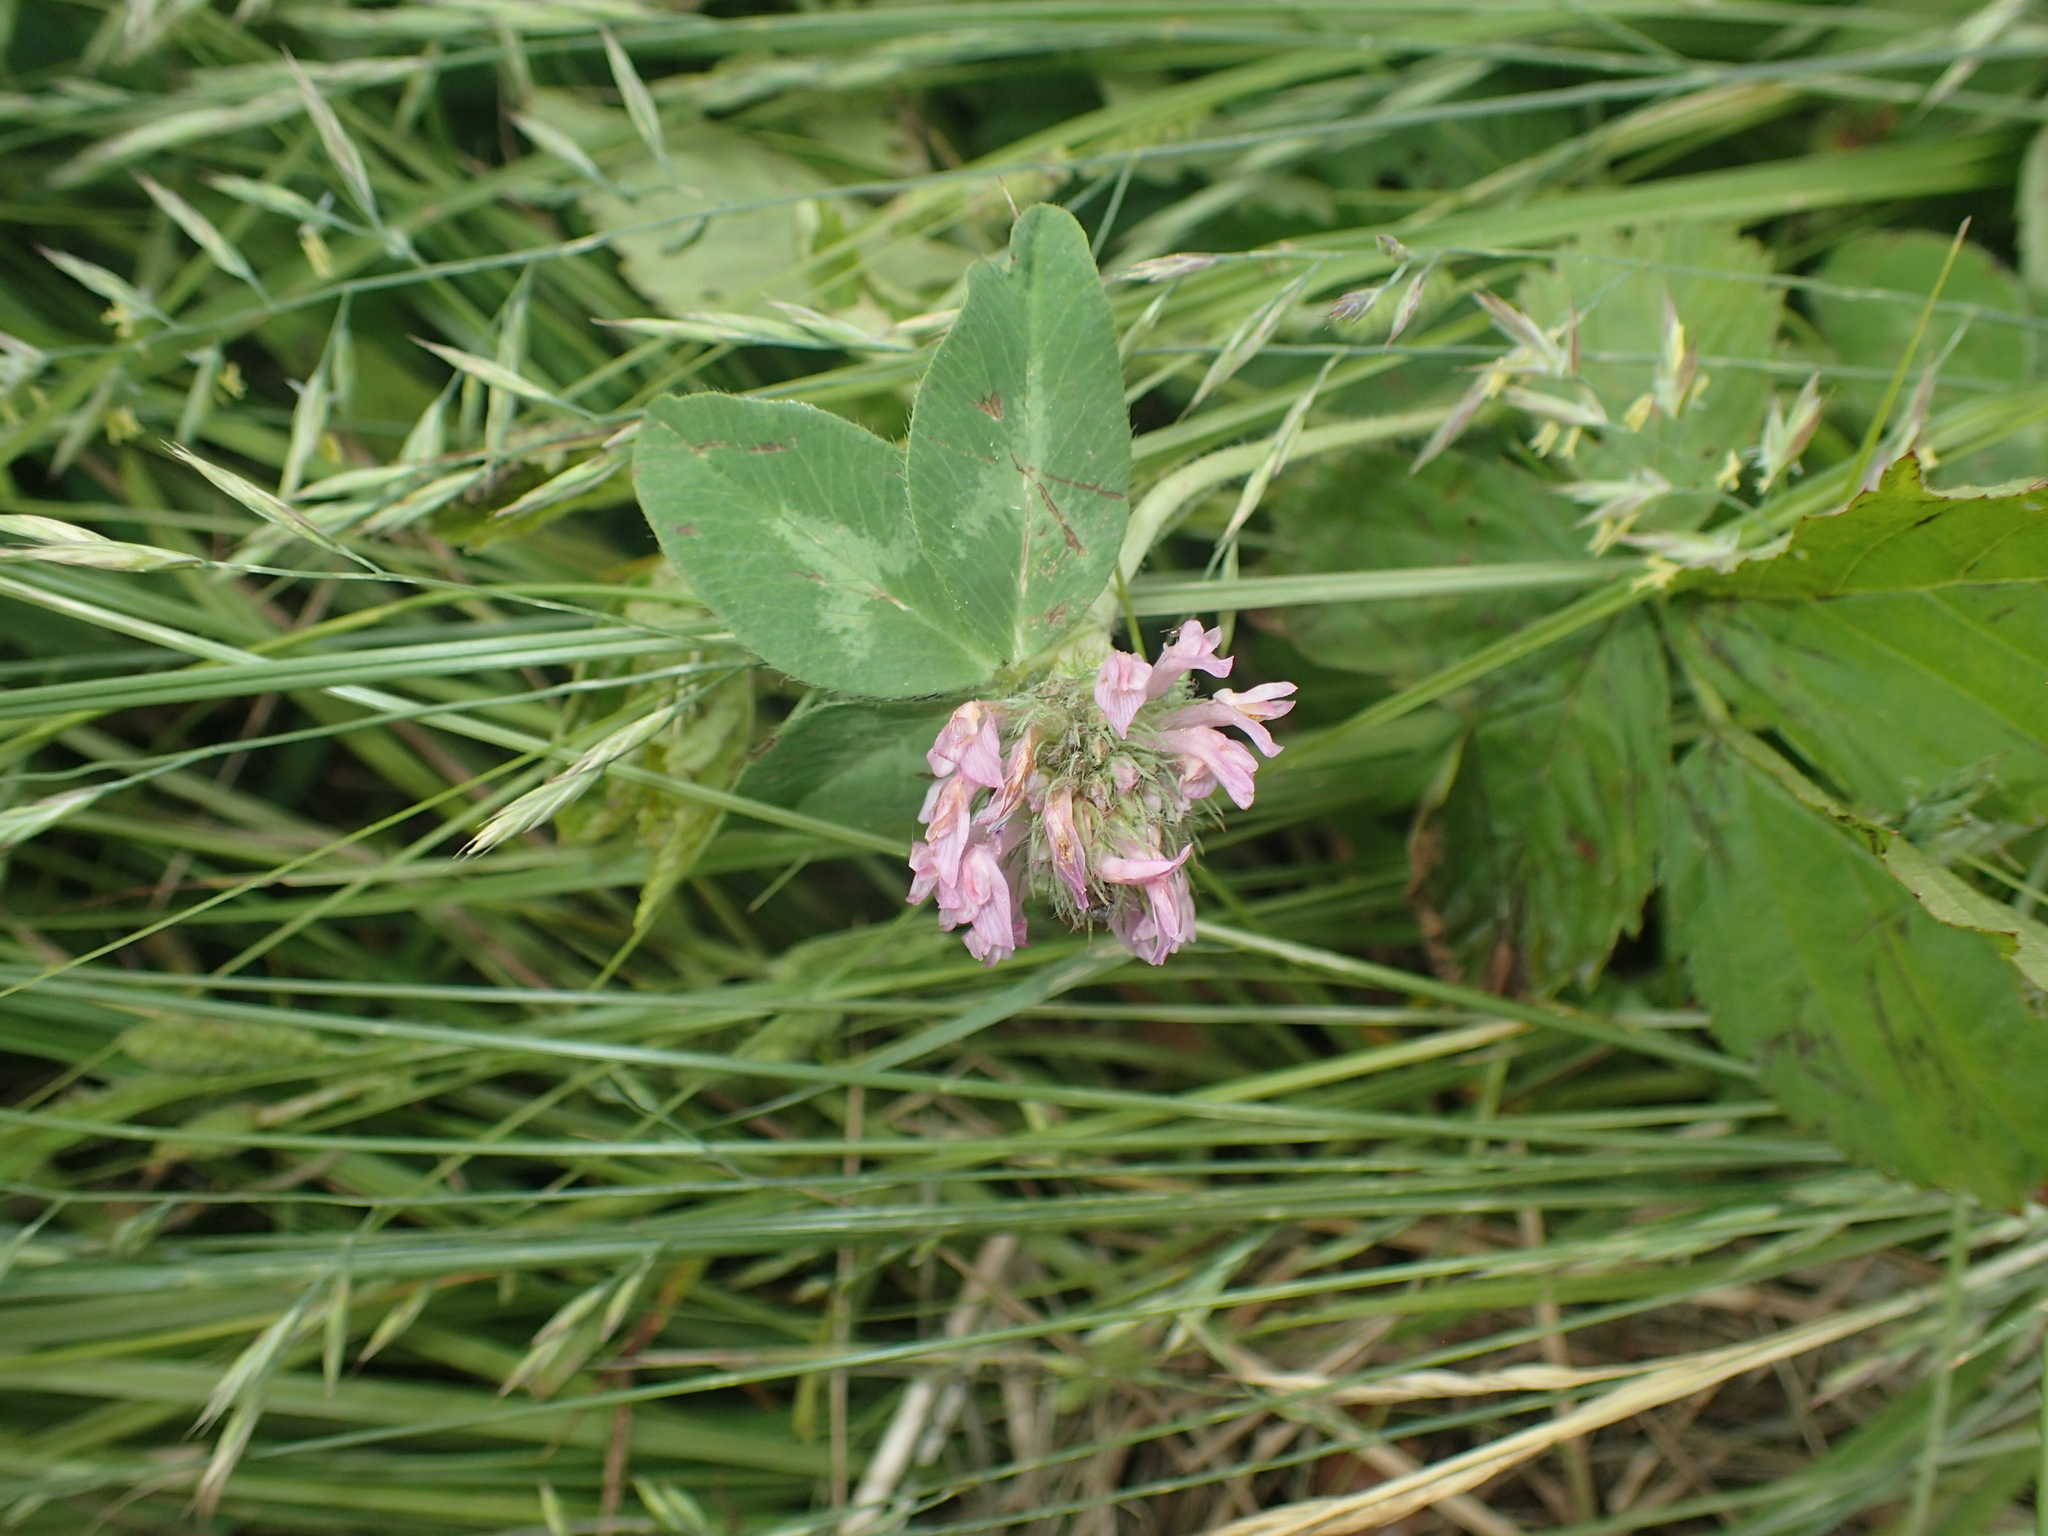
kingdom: Plantae
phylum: Tracheophyta
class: Magnoliopsida
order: Fabales
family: Fabaceae
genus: Trifolium
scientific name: Trifolium pratense
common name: Red clover
